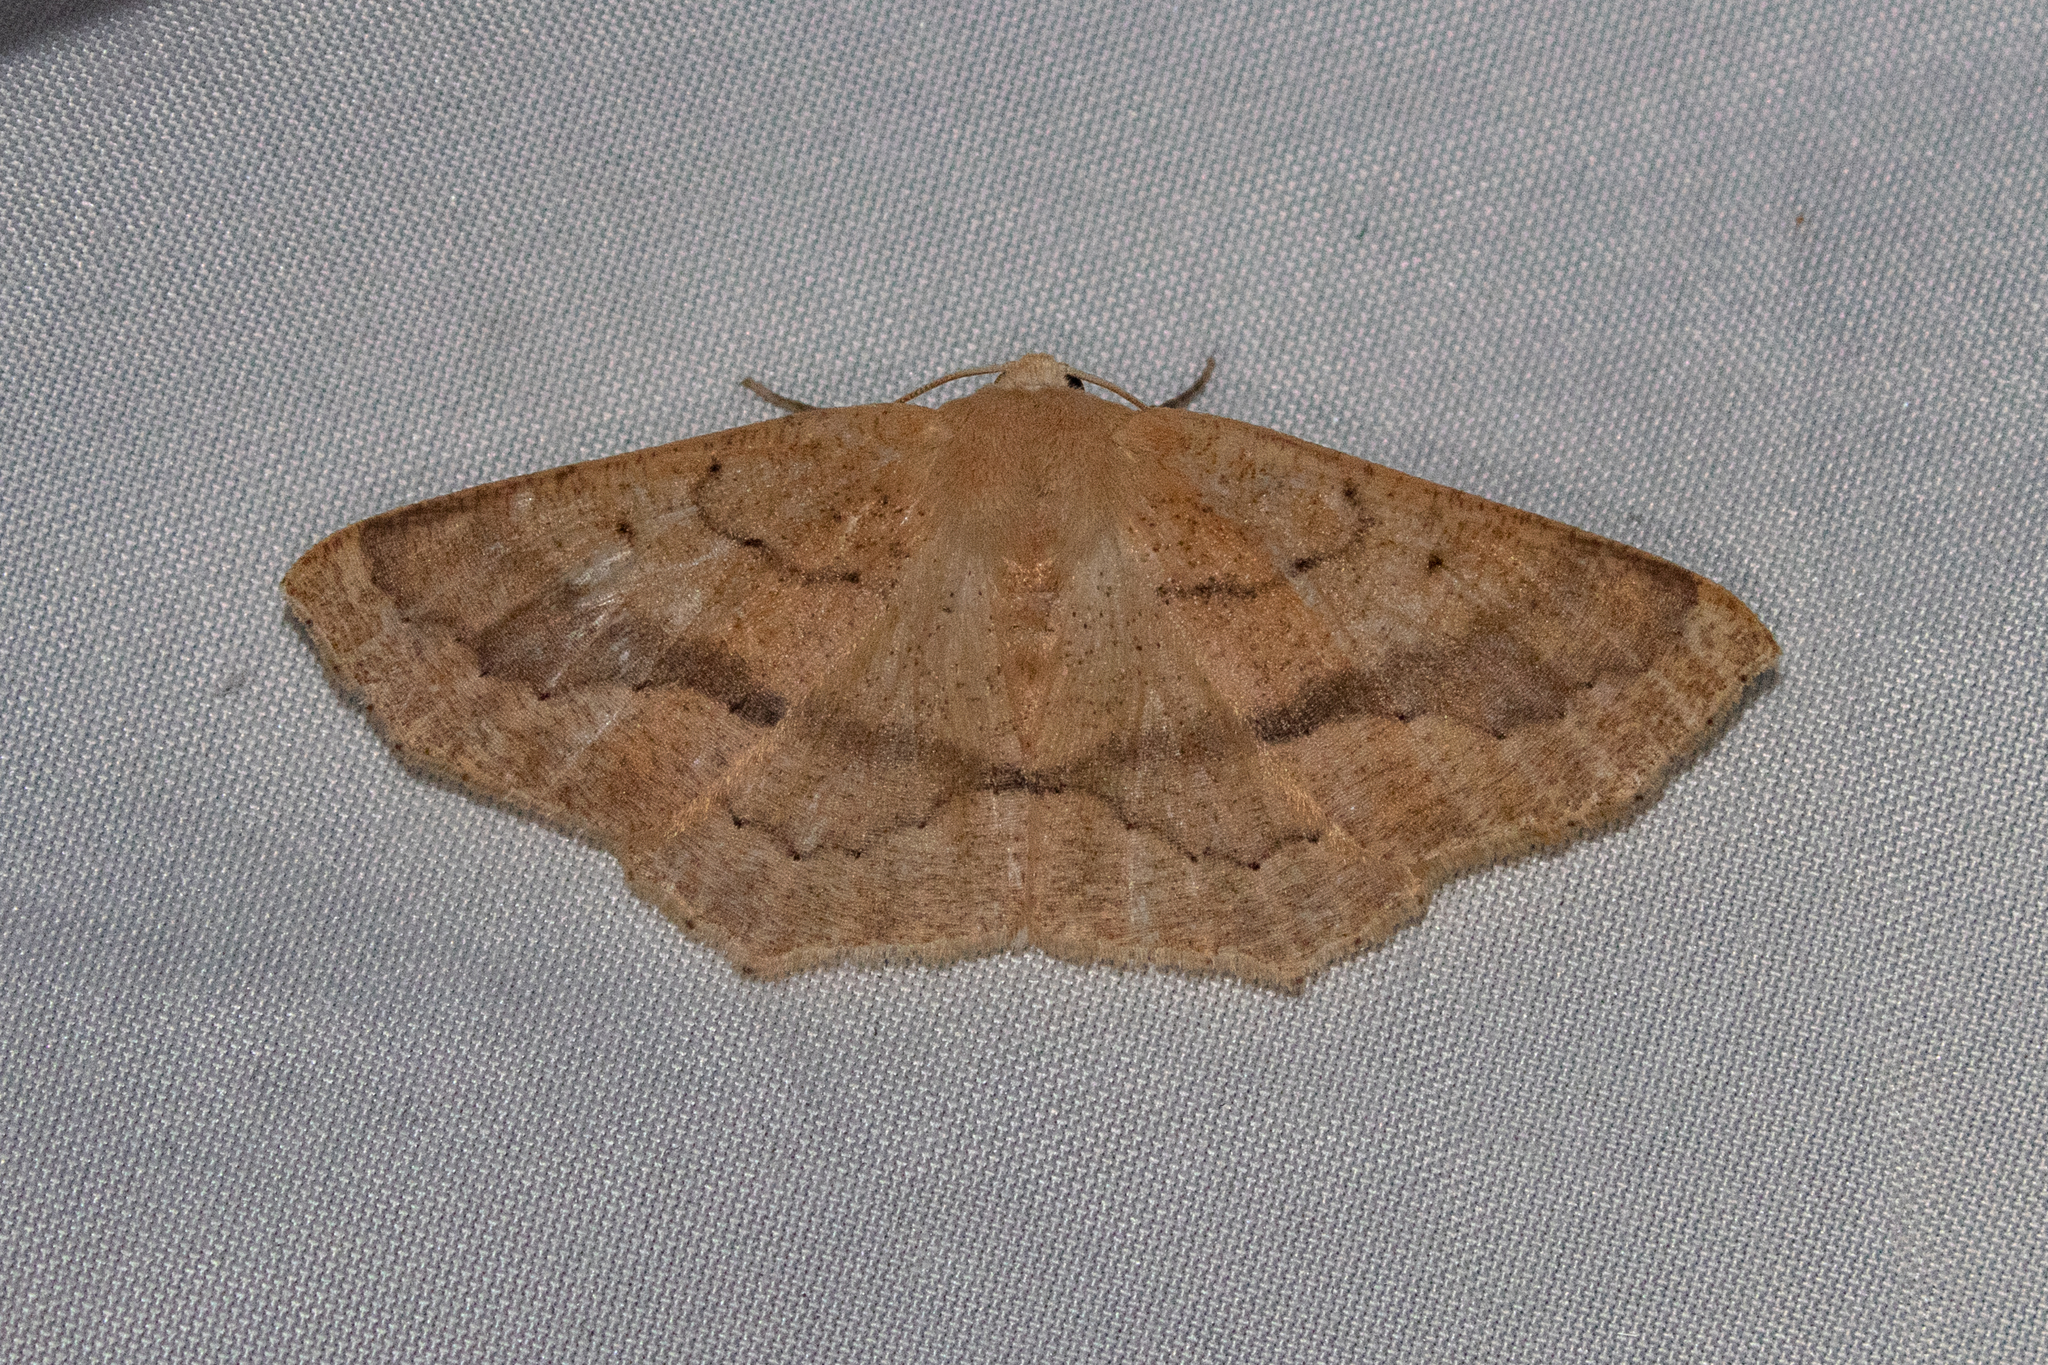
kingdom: Animalia
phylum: Arthropoda
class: Insecta
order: Lepidoptera
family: Geometridae
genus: Sabulodes
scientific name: Sabulodes aegrotata
